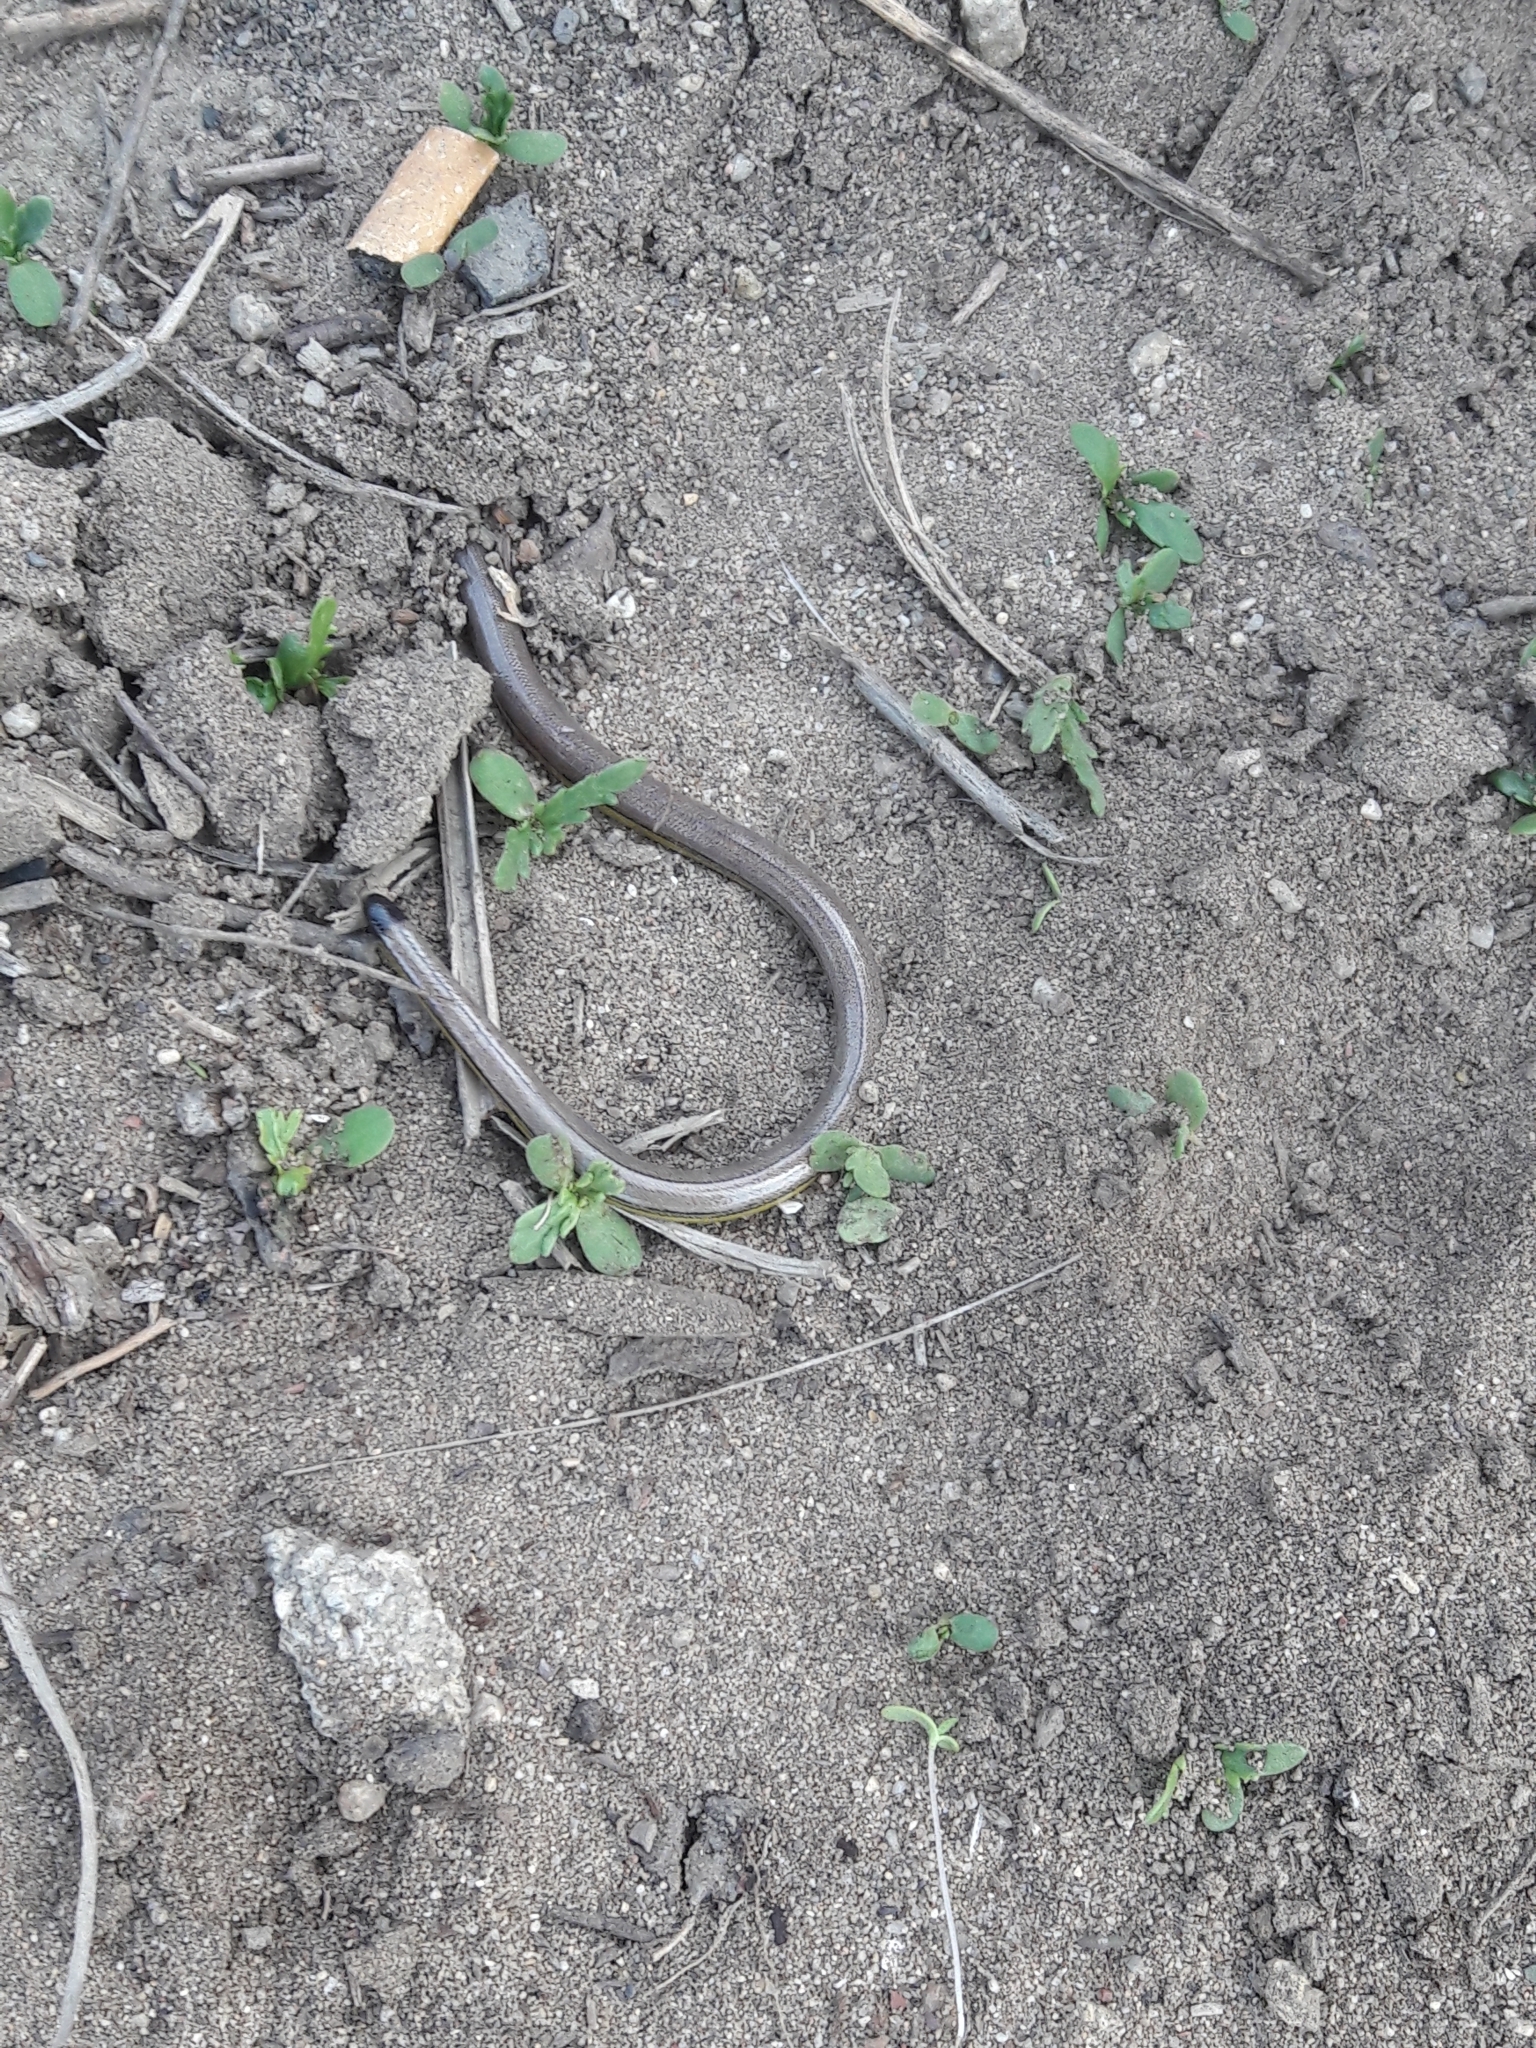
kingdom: Animalia
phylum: Chordata
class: Squamata
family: Anguidae
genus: Anniella
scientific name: Anniella stebbinsi
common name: Southern california legless lizard
